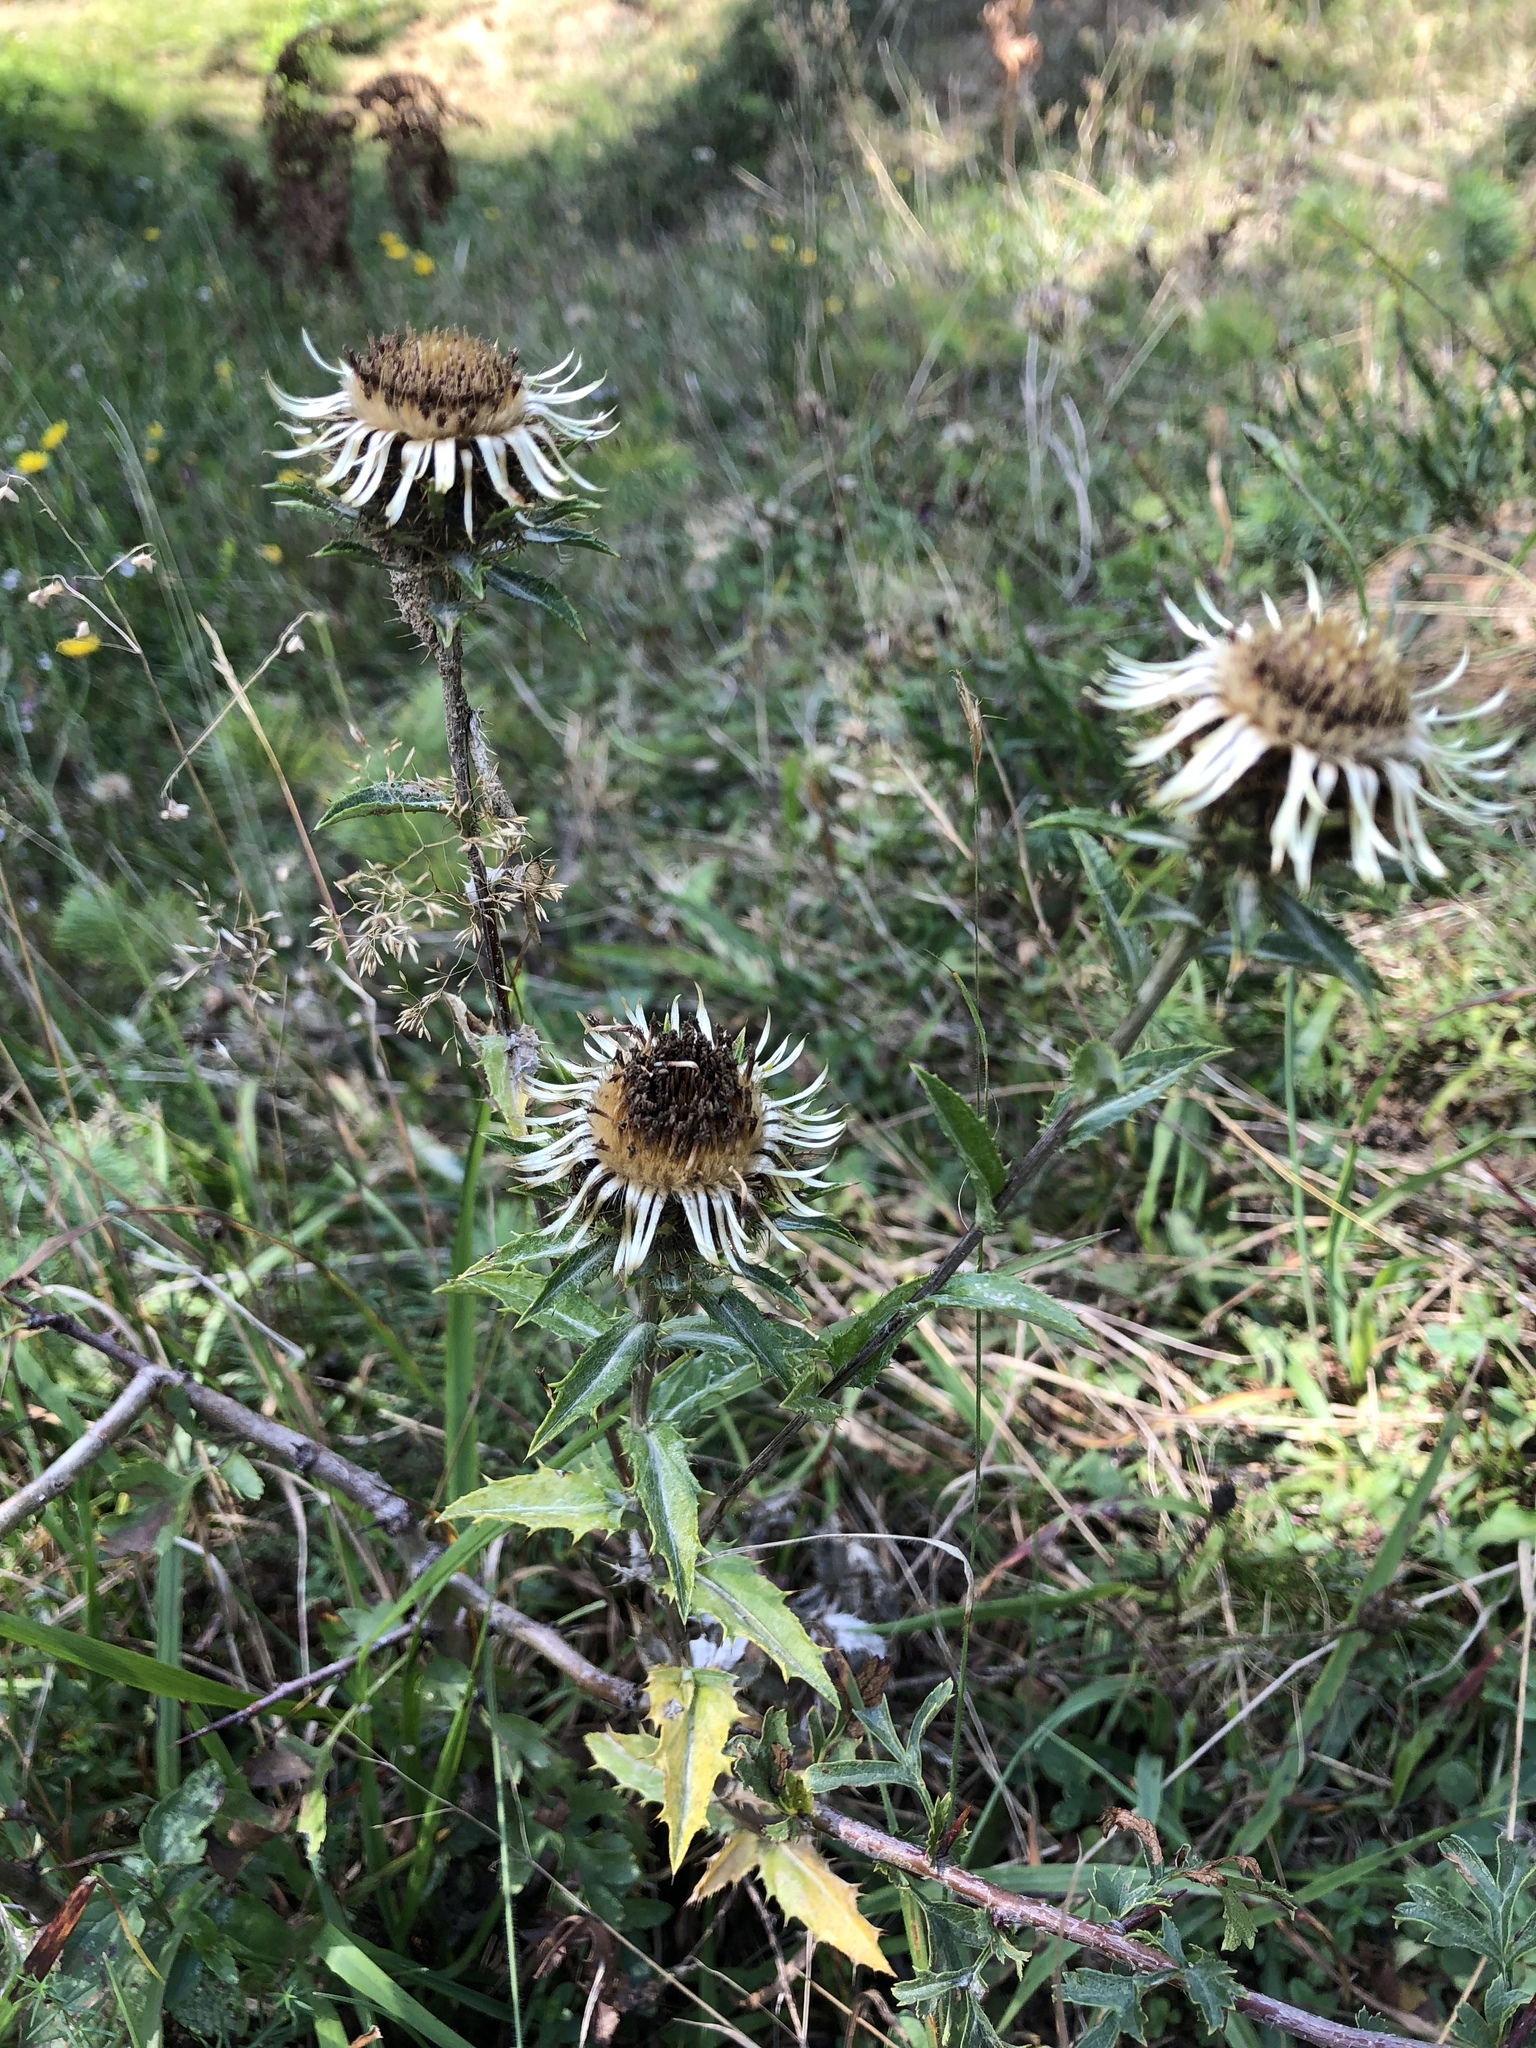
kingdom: Plantae
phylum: Tracheophyta
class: Magnoliopsida
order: Asterales
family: Asteraceae
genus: Carlina
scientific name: Carlina vulgaris
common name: Carline thistle
